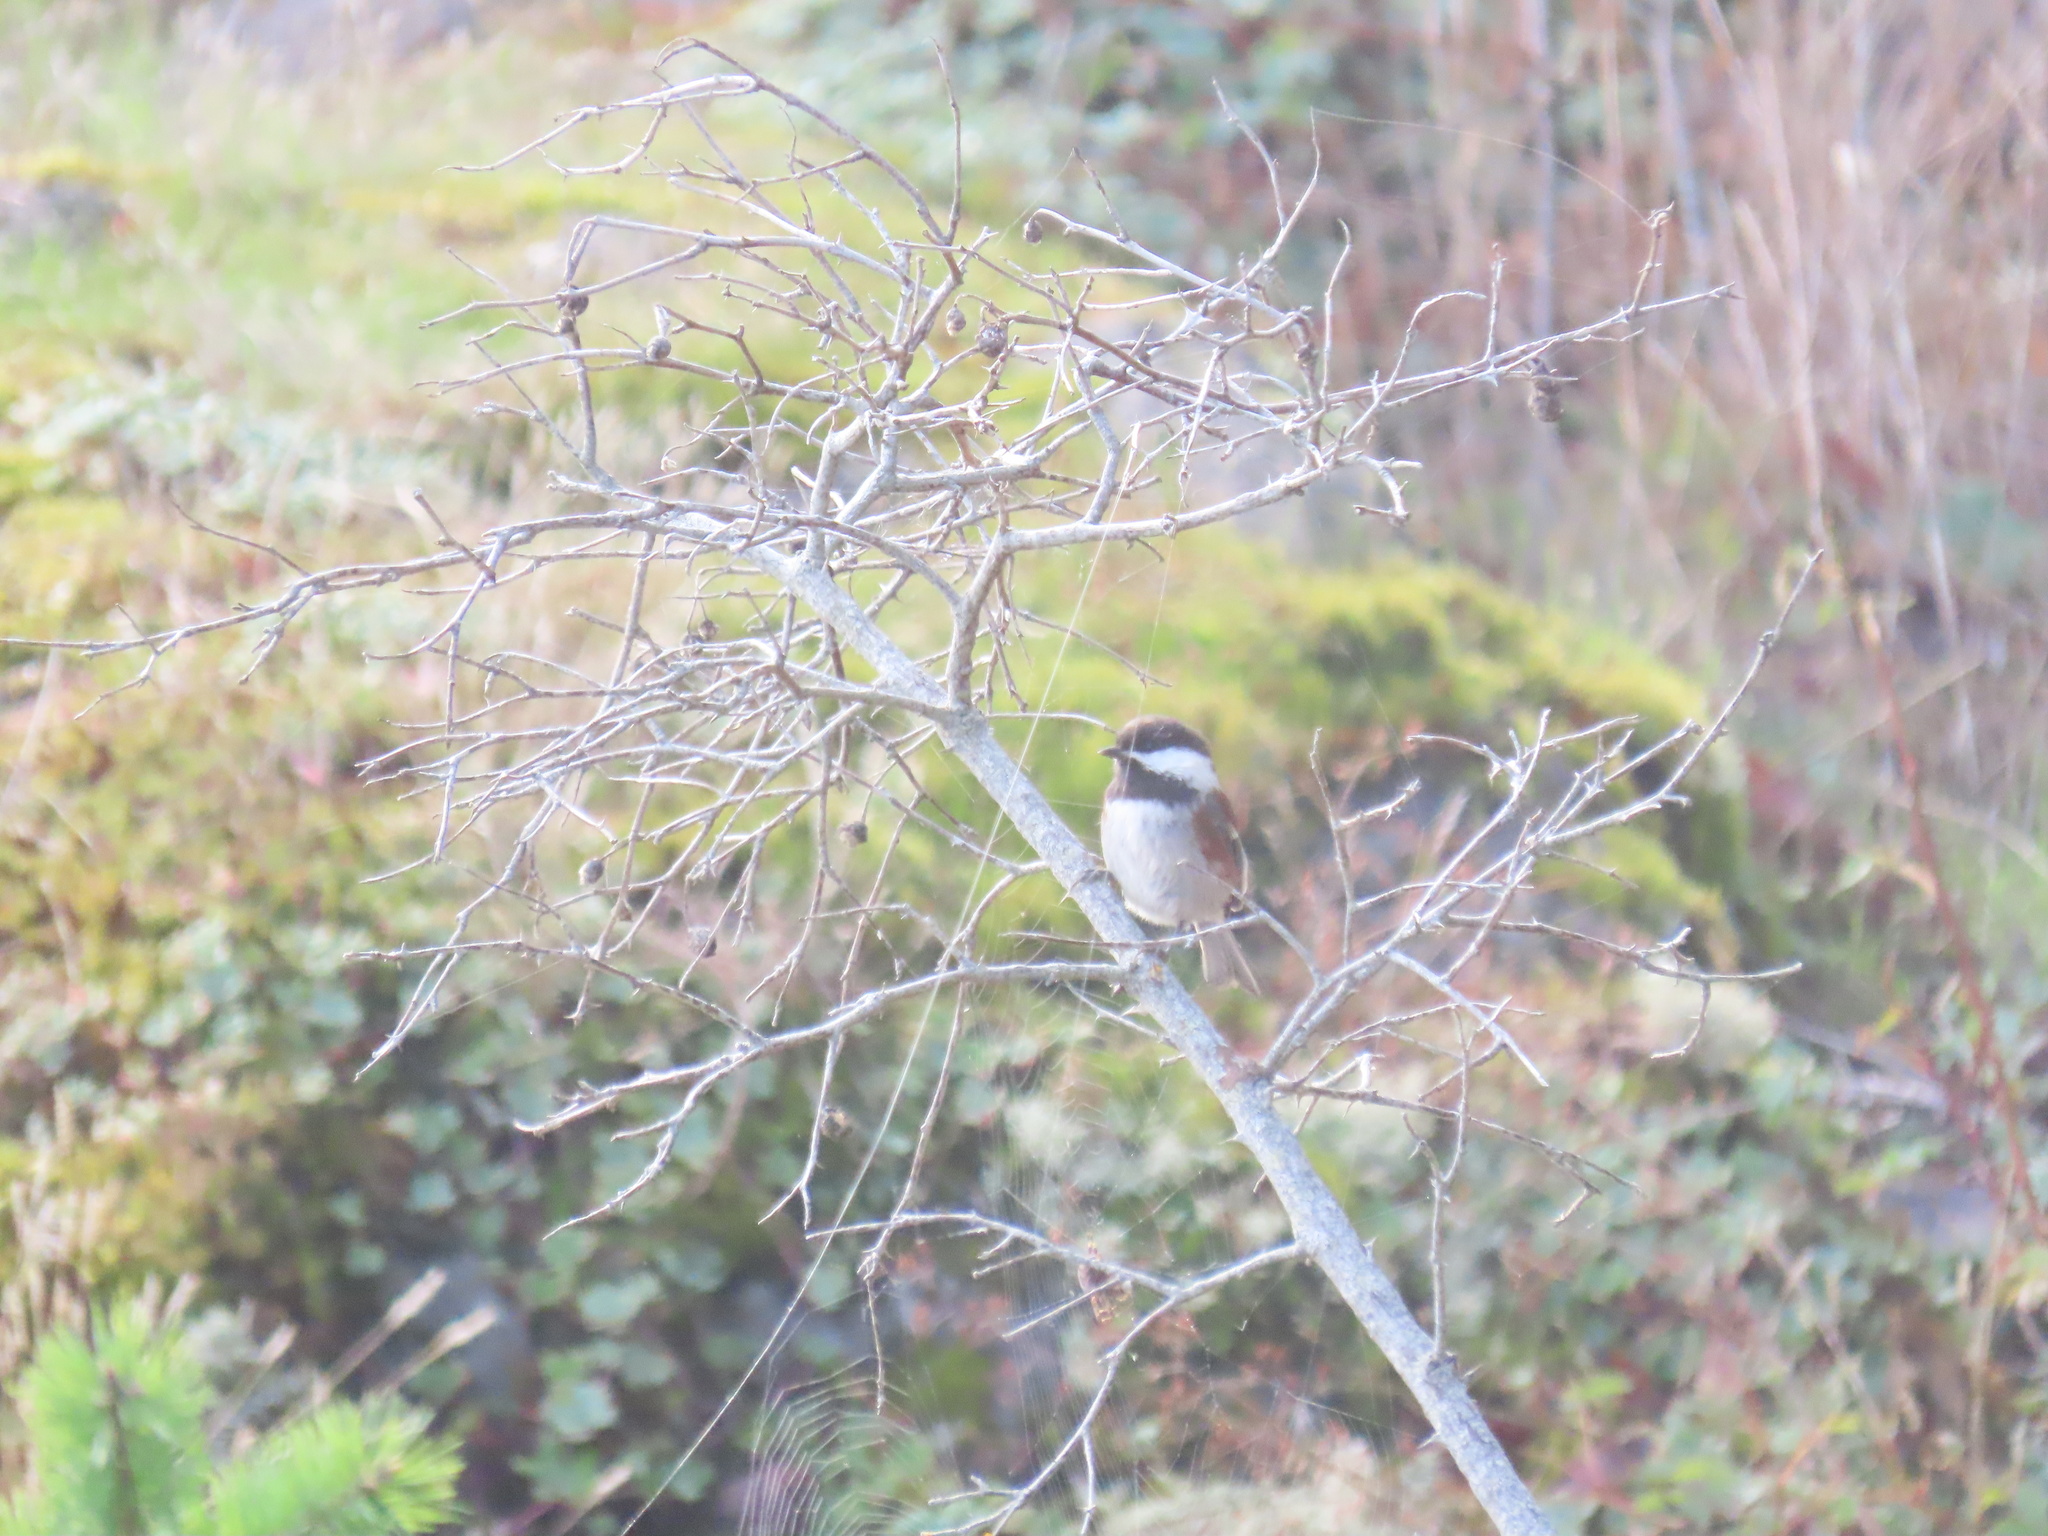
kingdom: Animalia
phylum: Chordata
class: Aves
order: Passeriformes
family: Paridae
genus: Poecile
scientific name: Poecile rufescens
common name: Chestnut-backed chickadee
